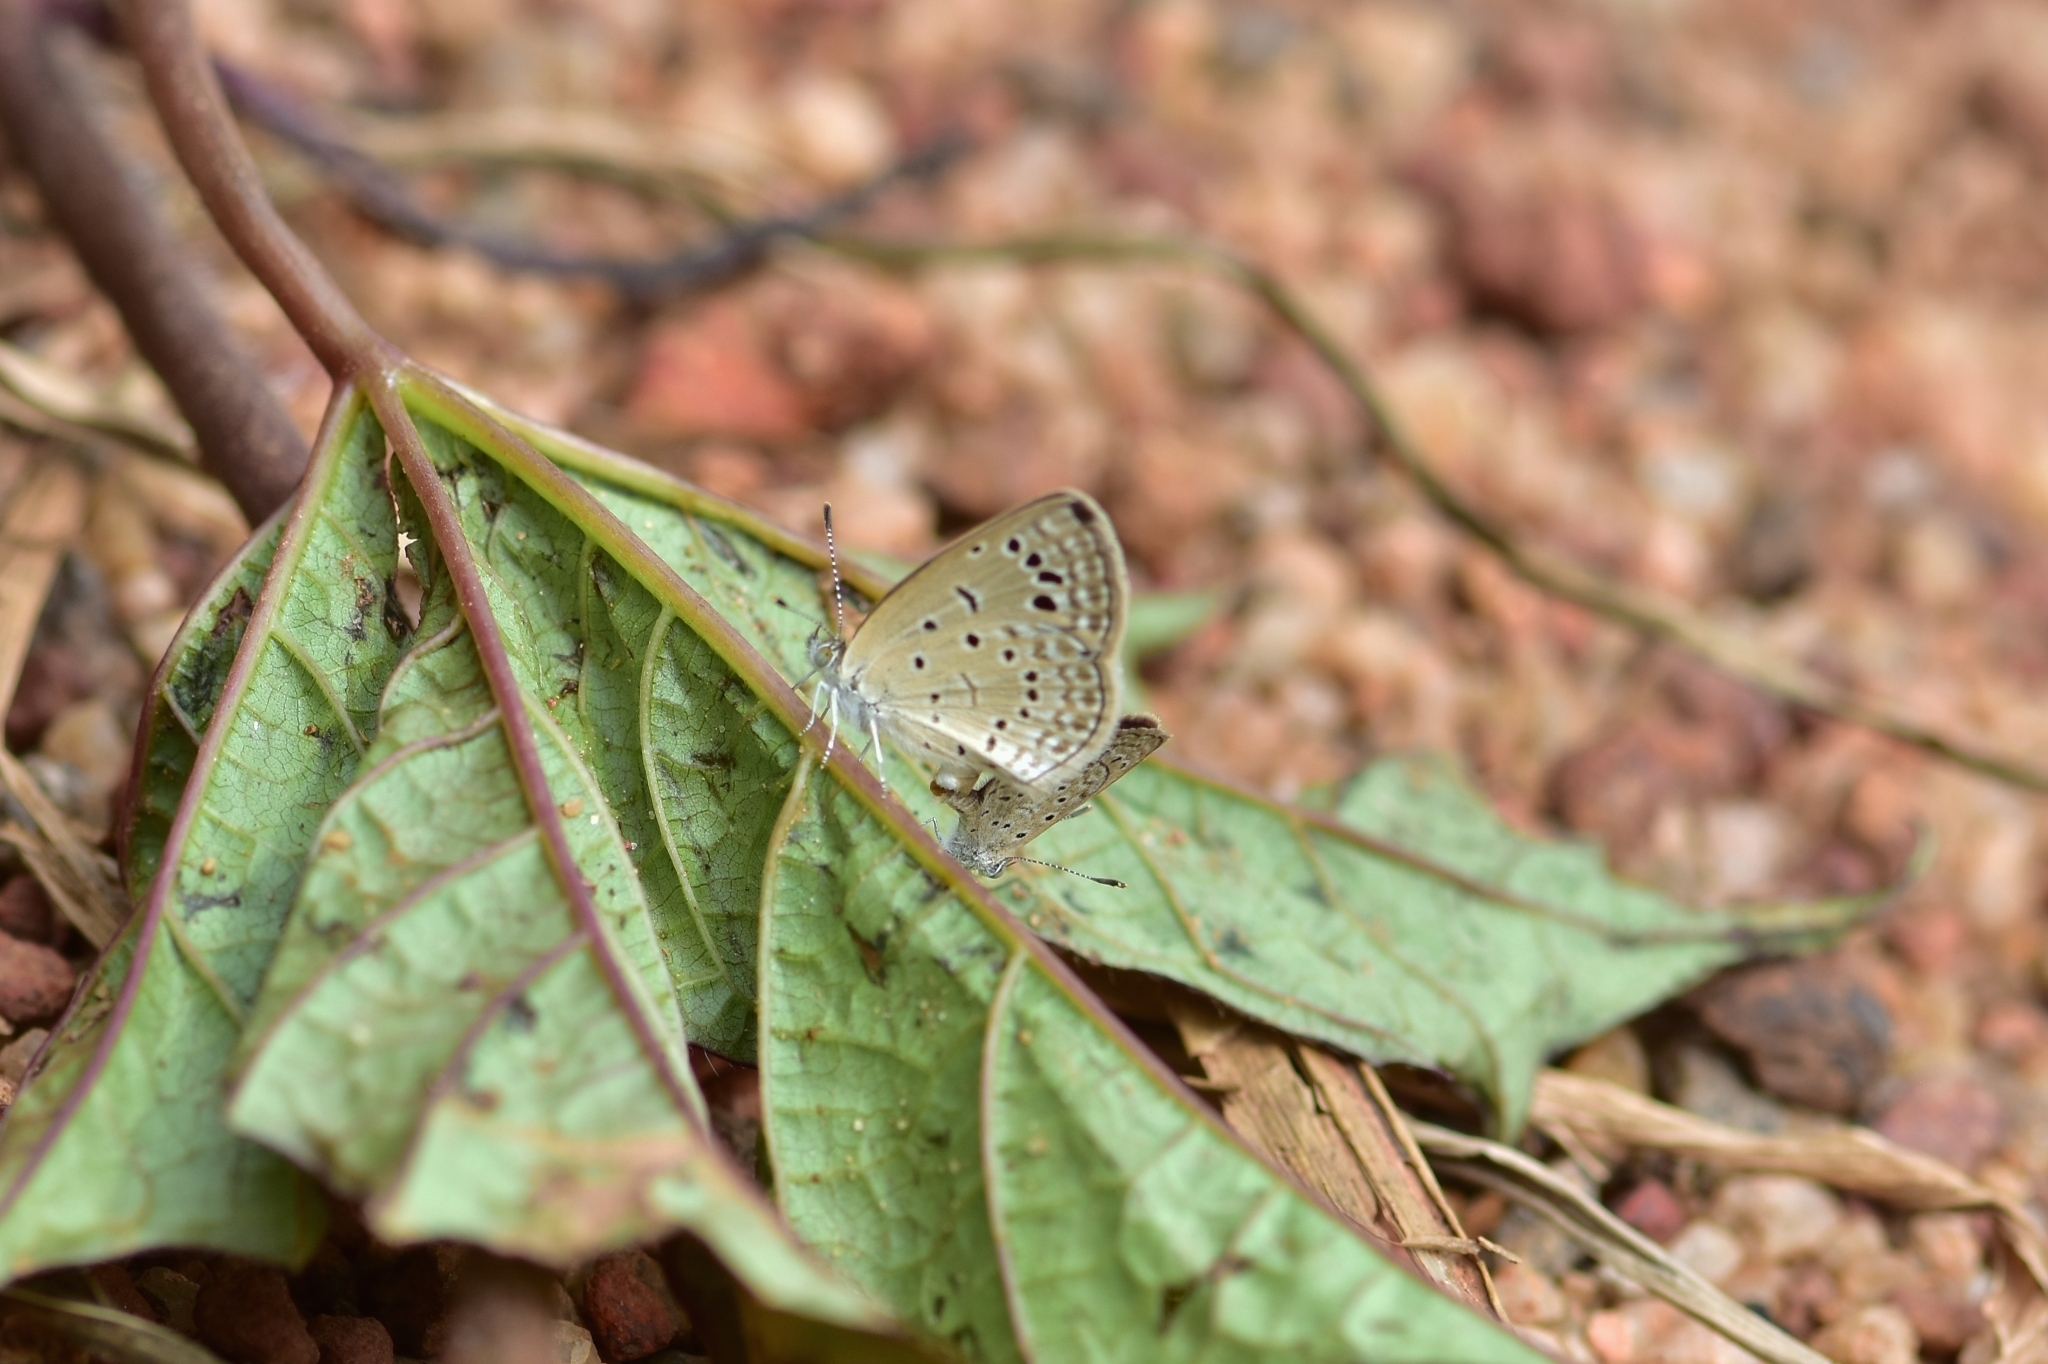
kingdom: Animalia
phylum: Arthropoda
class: Insecta
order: Lepidoptera
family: Lycaenidae
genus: Zizula
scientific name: Zizula hylax
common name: Gaika blue
